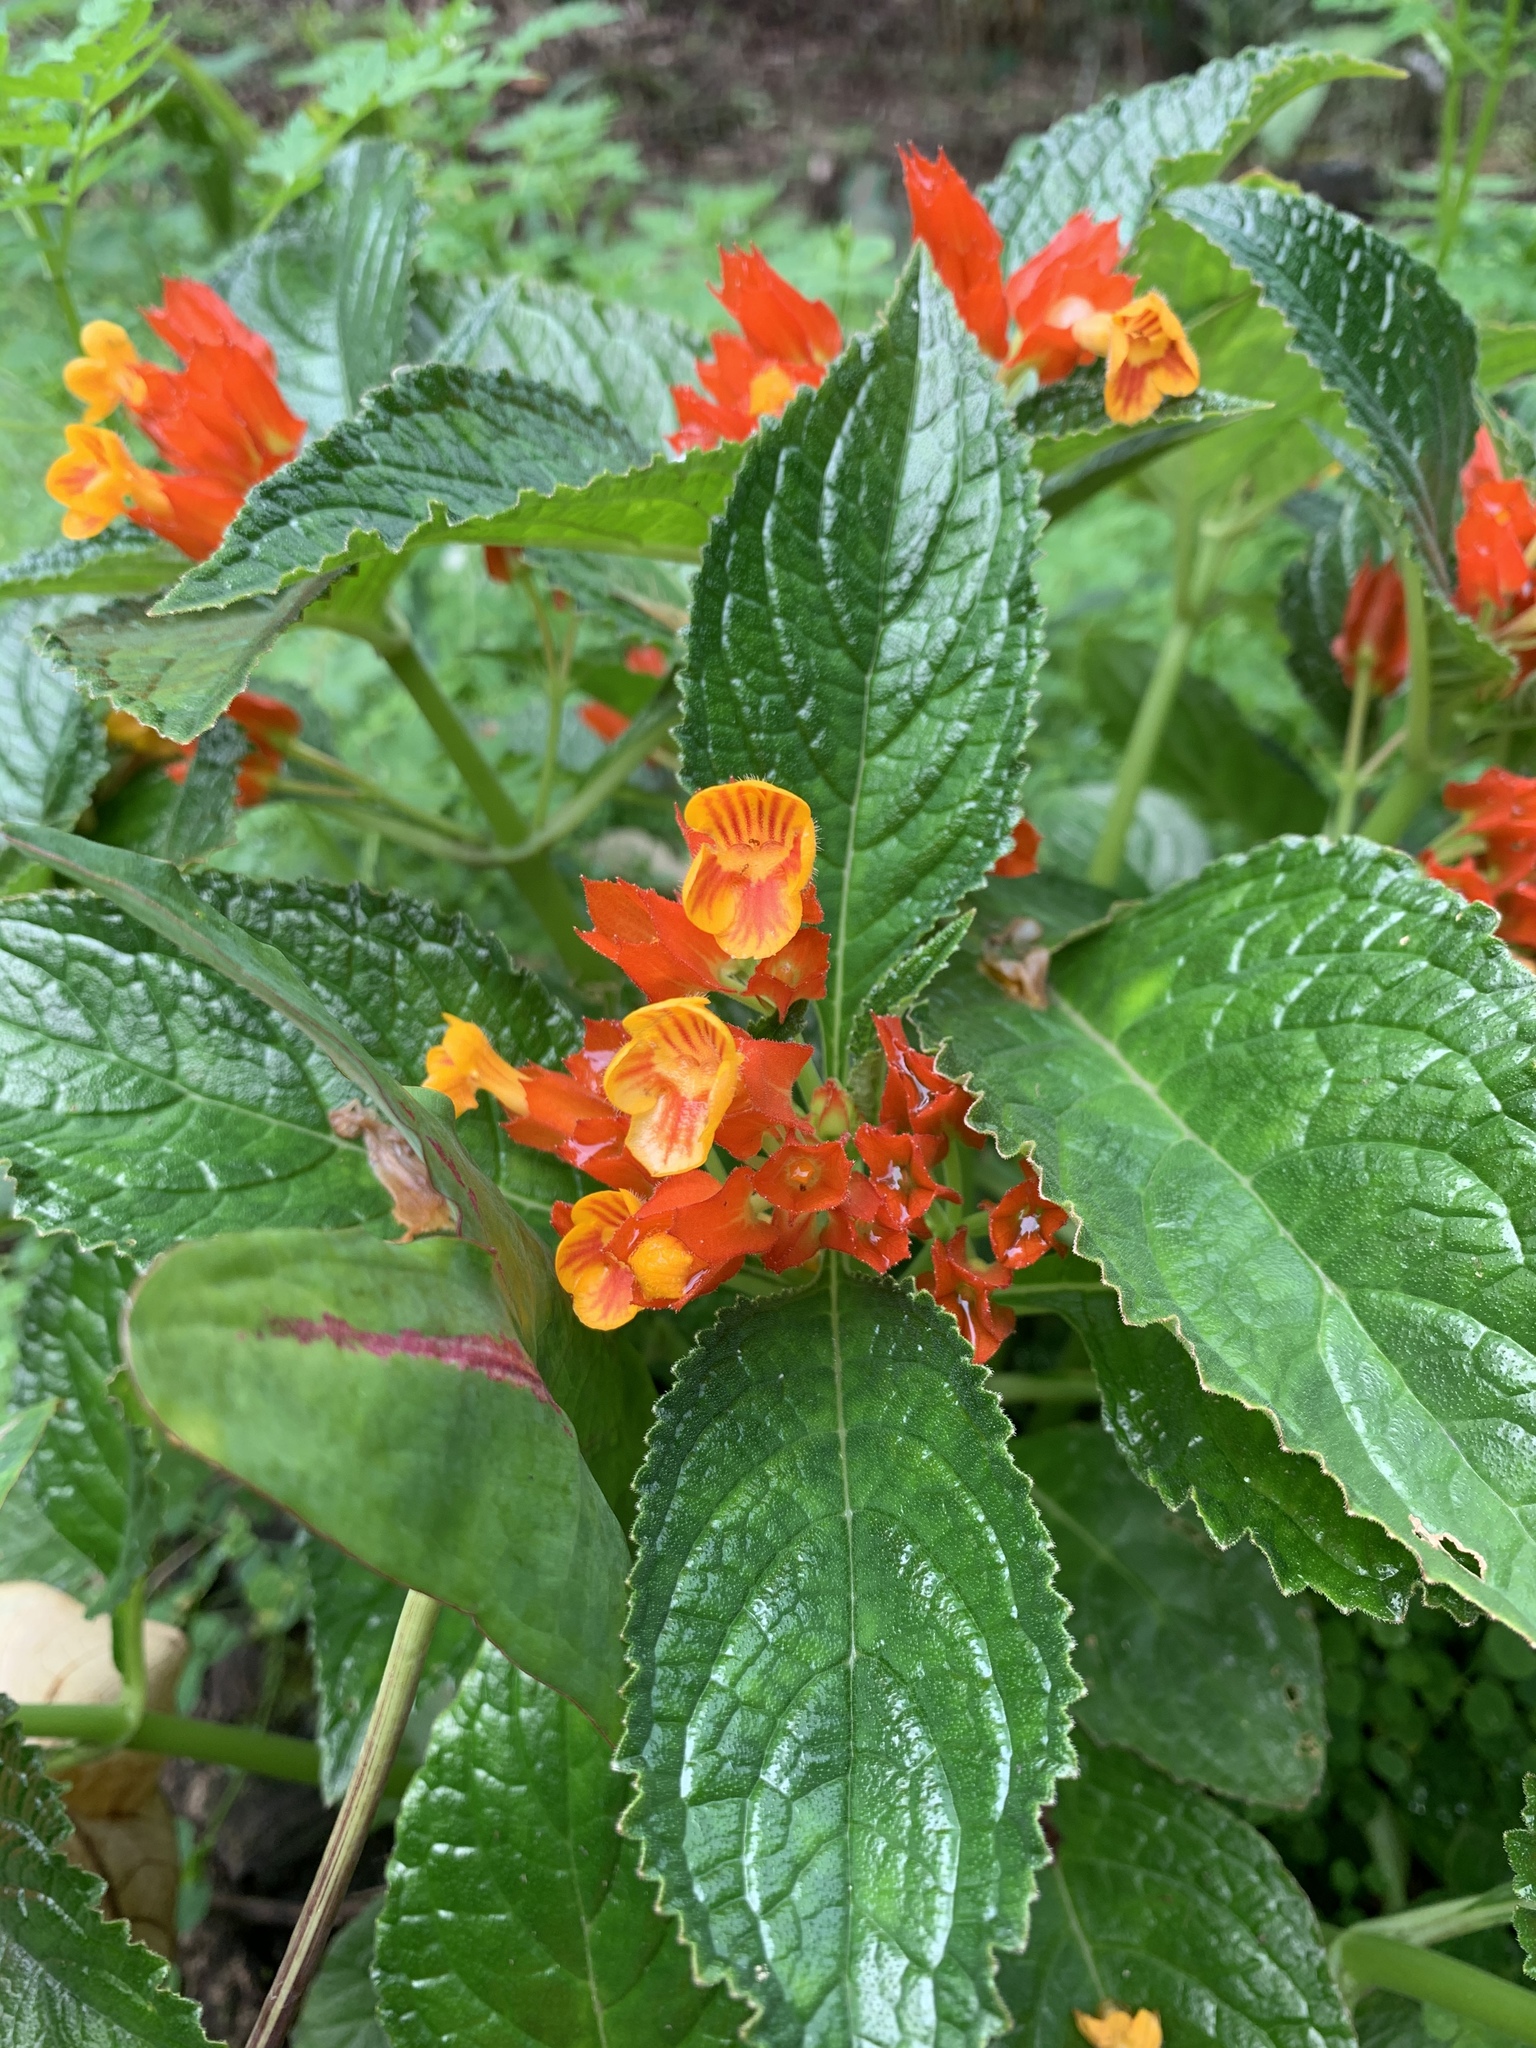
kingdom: Plantae
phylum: Tracheophyta
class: Magnoliopsida
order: Lamiales
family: Gesneriaceae
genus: Chrysothemis
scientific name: Chrysothemis pulchella
